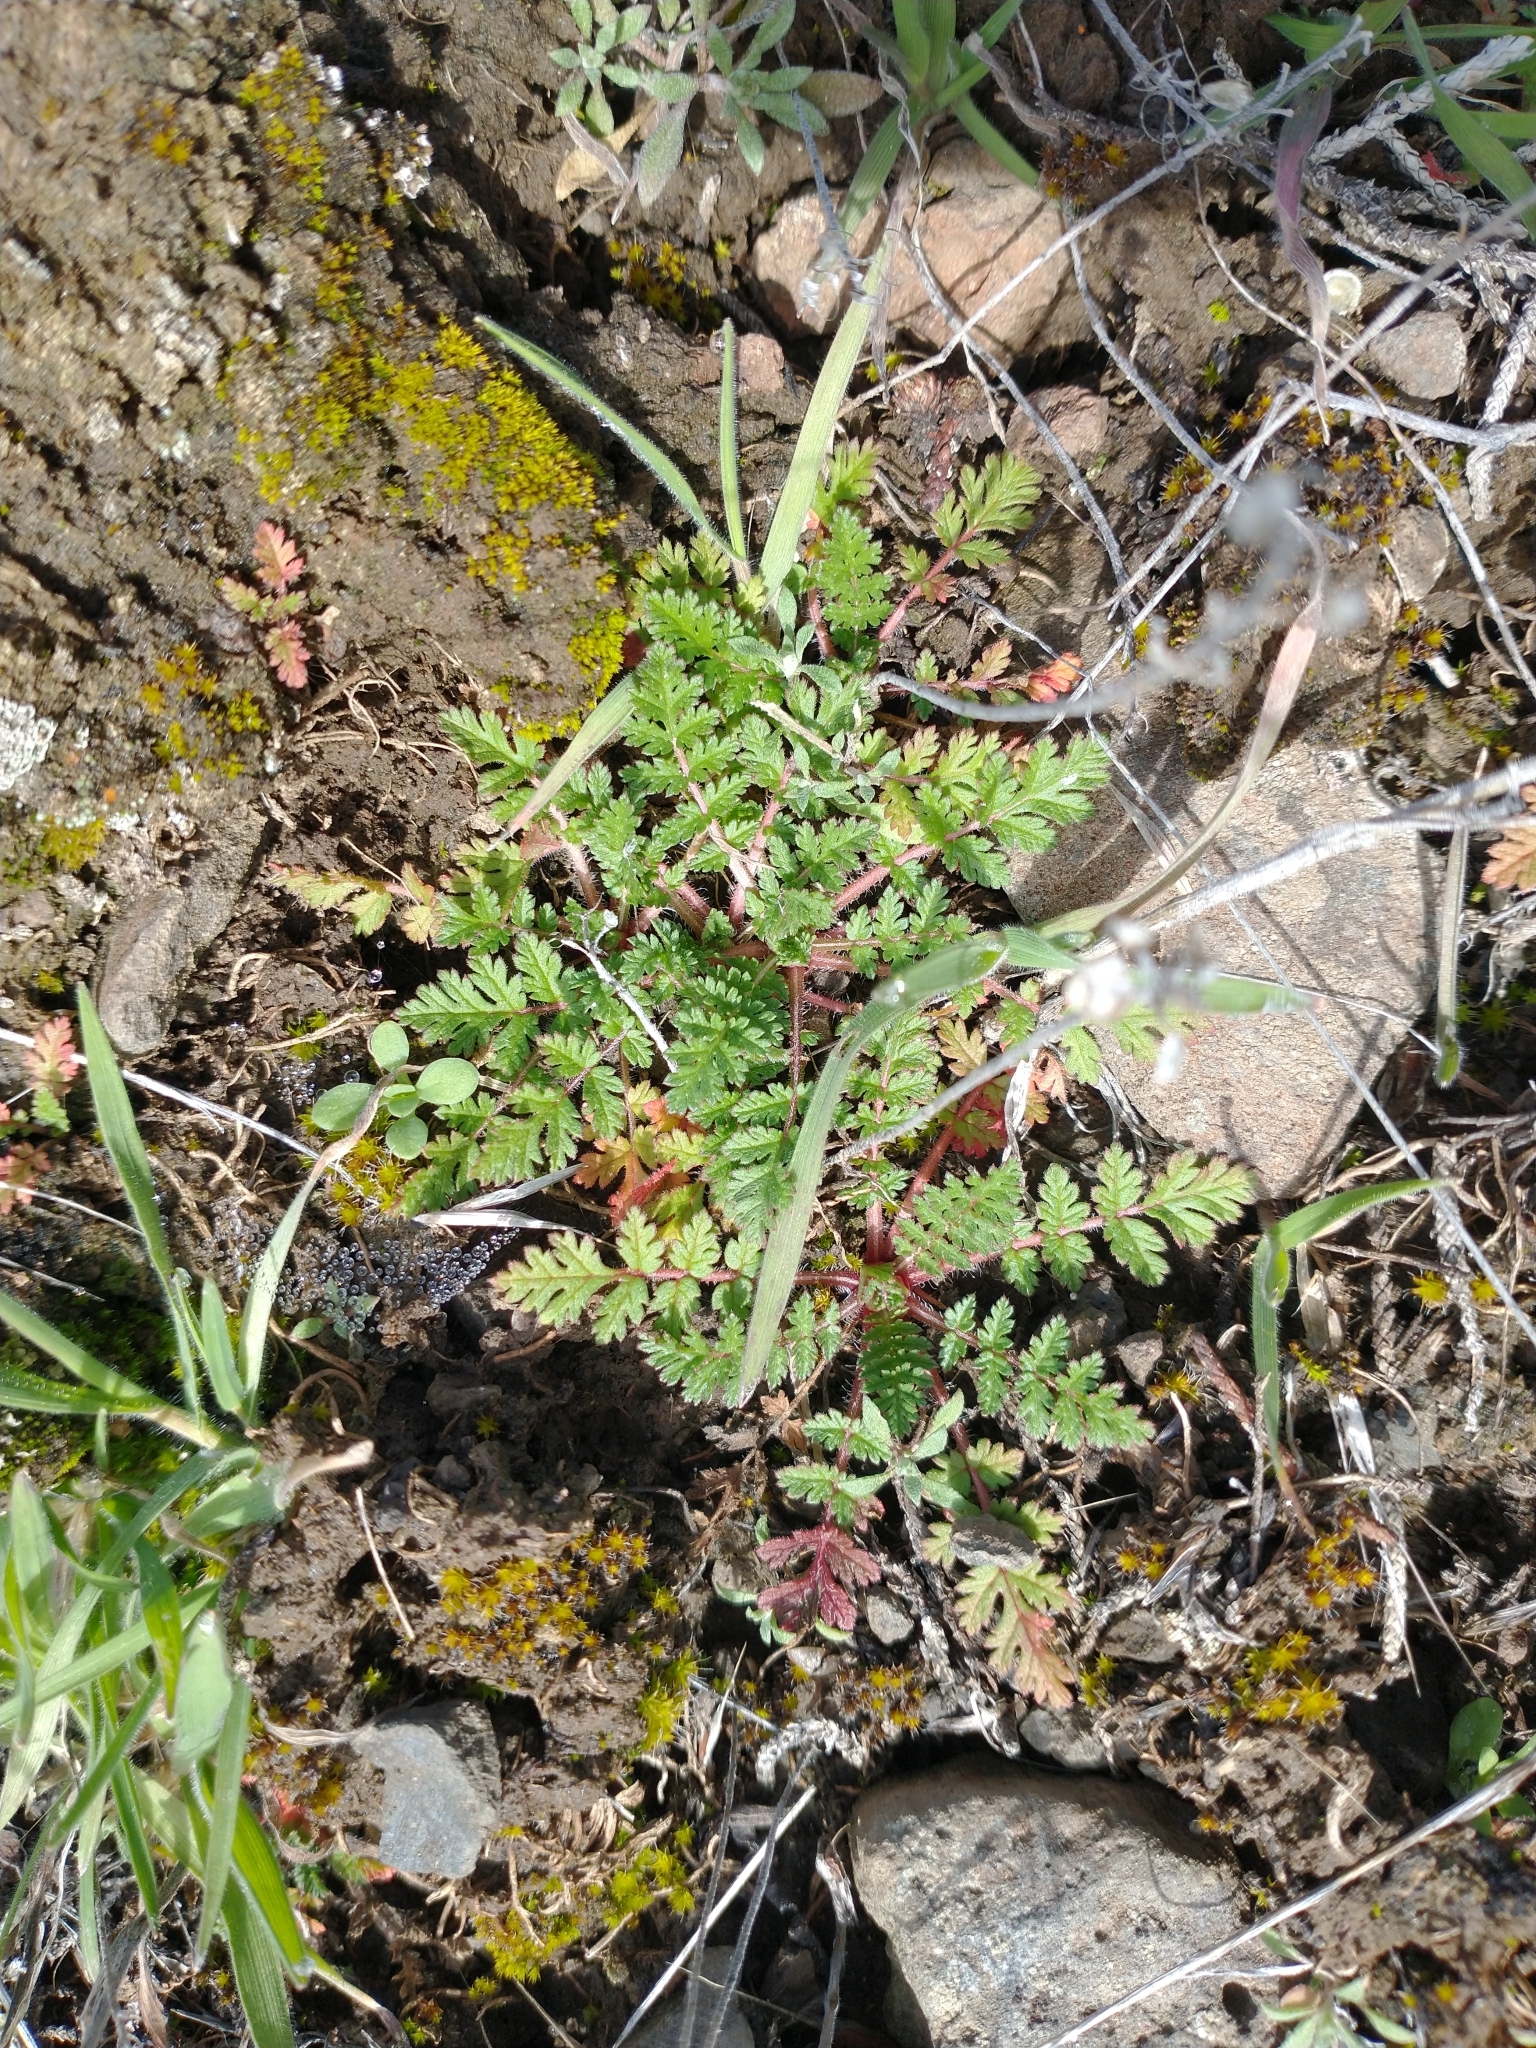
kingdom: Plantae
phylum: Tracheophyta
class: Magnoliopsida
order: Geraniales
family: Geraniaceae
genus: Erodium
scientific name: Erodium cicutarium
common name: Common stork's-bill
